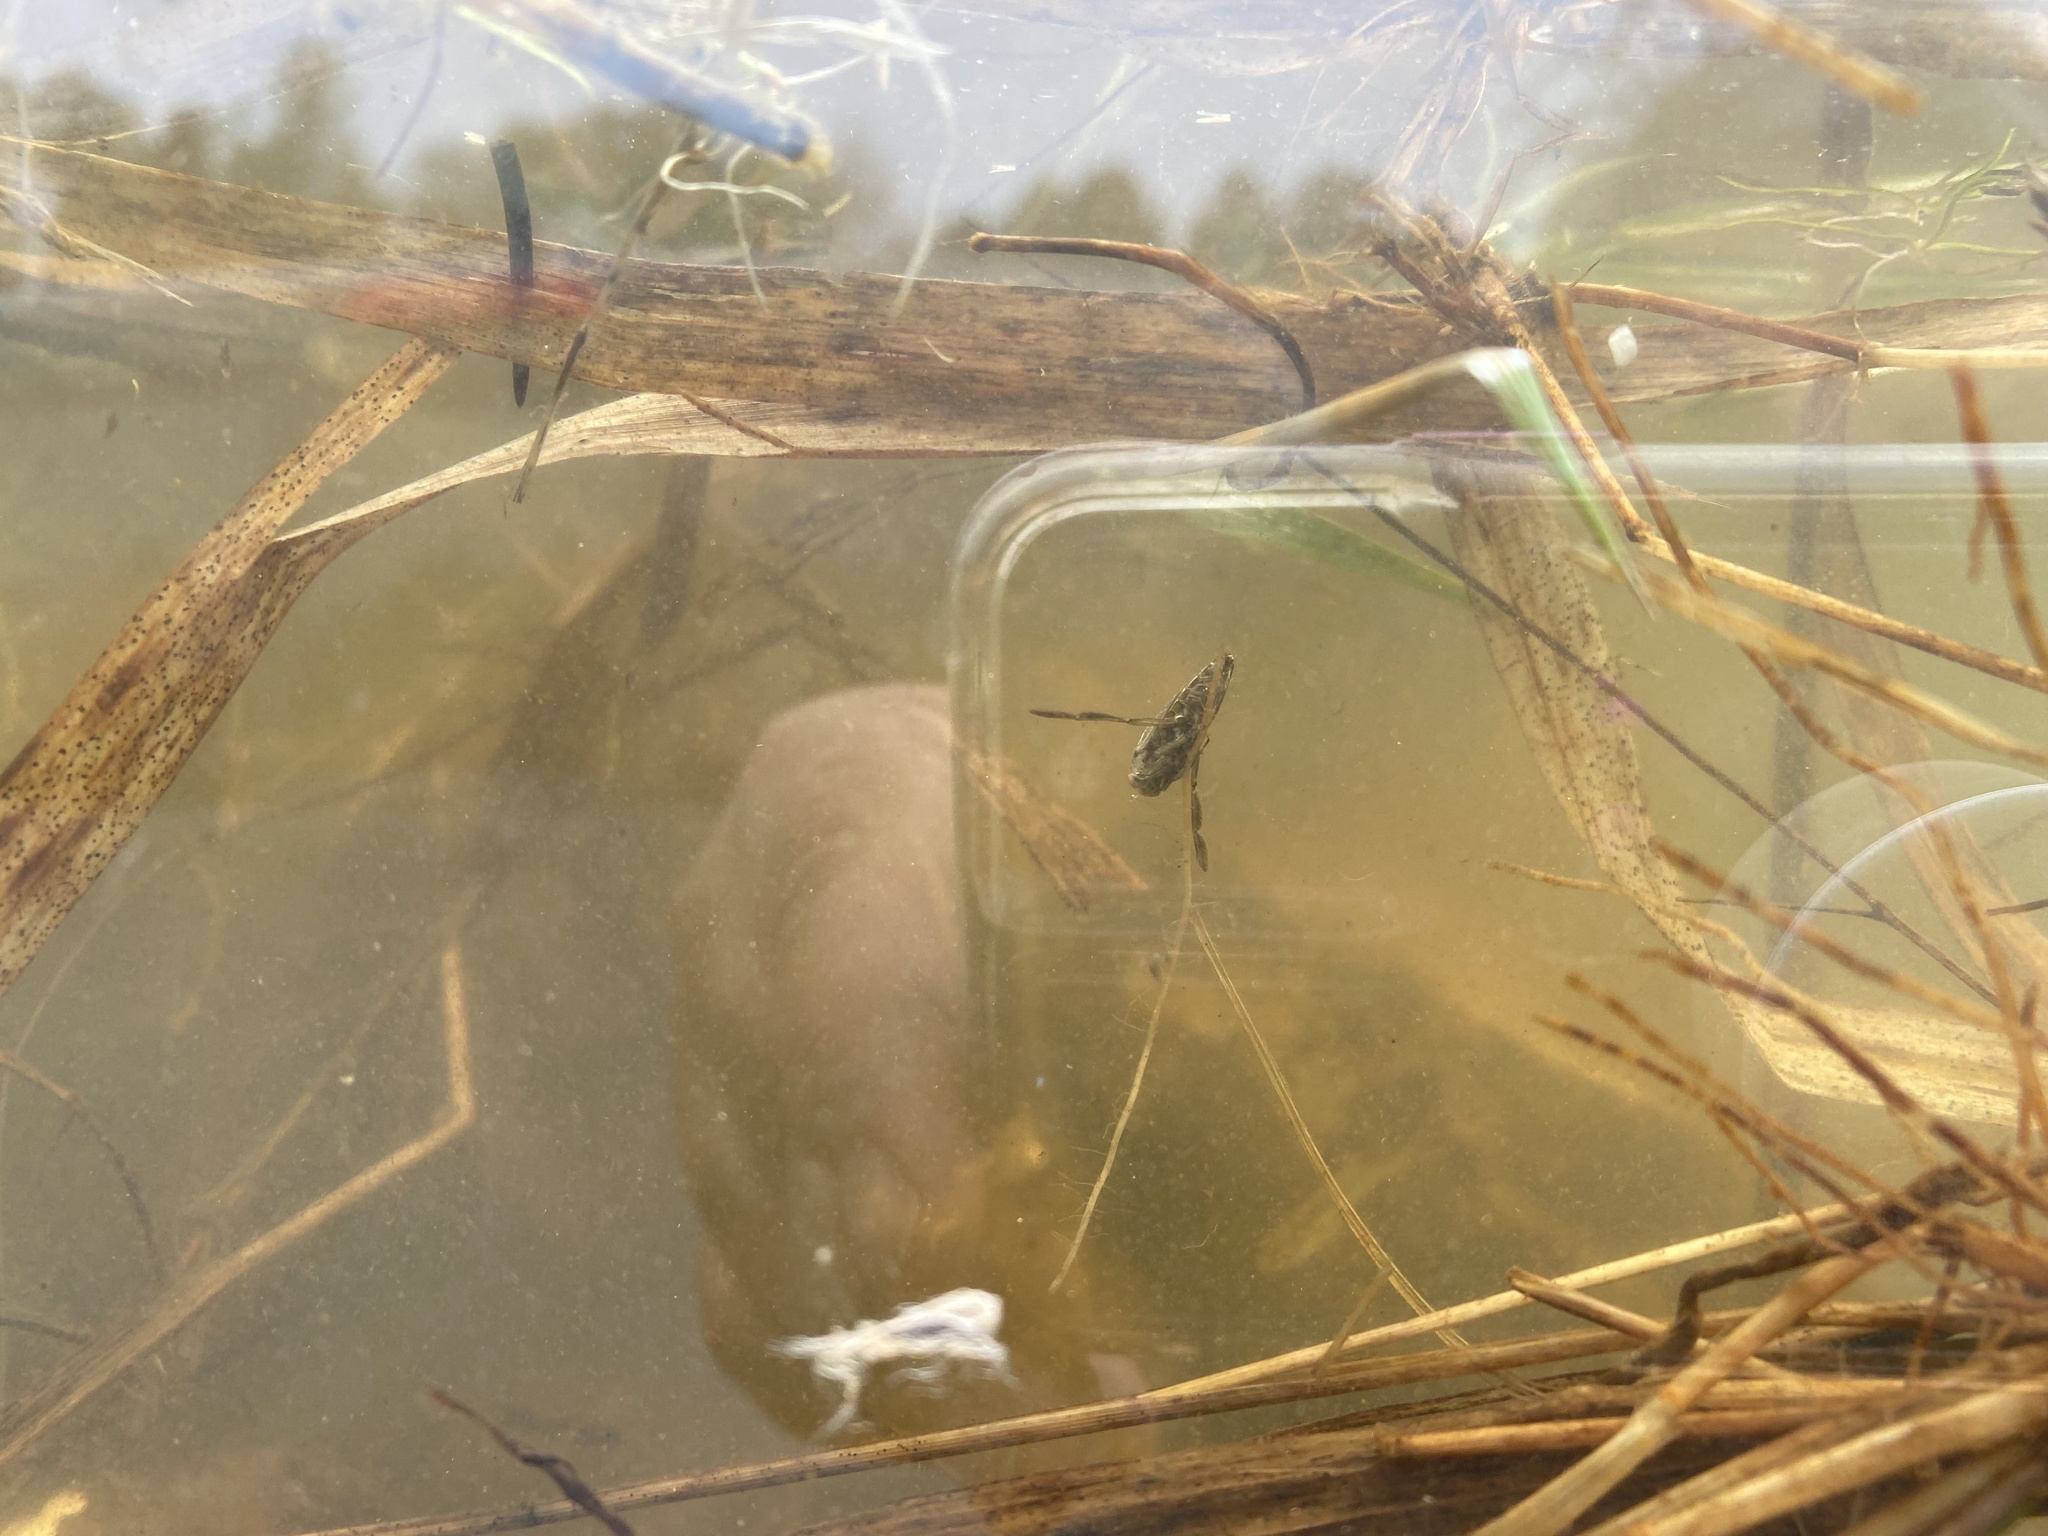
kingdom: Animalia
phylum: Arthropoda
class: Insecta
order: Hemiptera
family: Notonectidae
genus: Notonecta
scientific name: Notonecta
